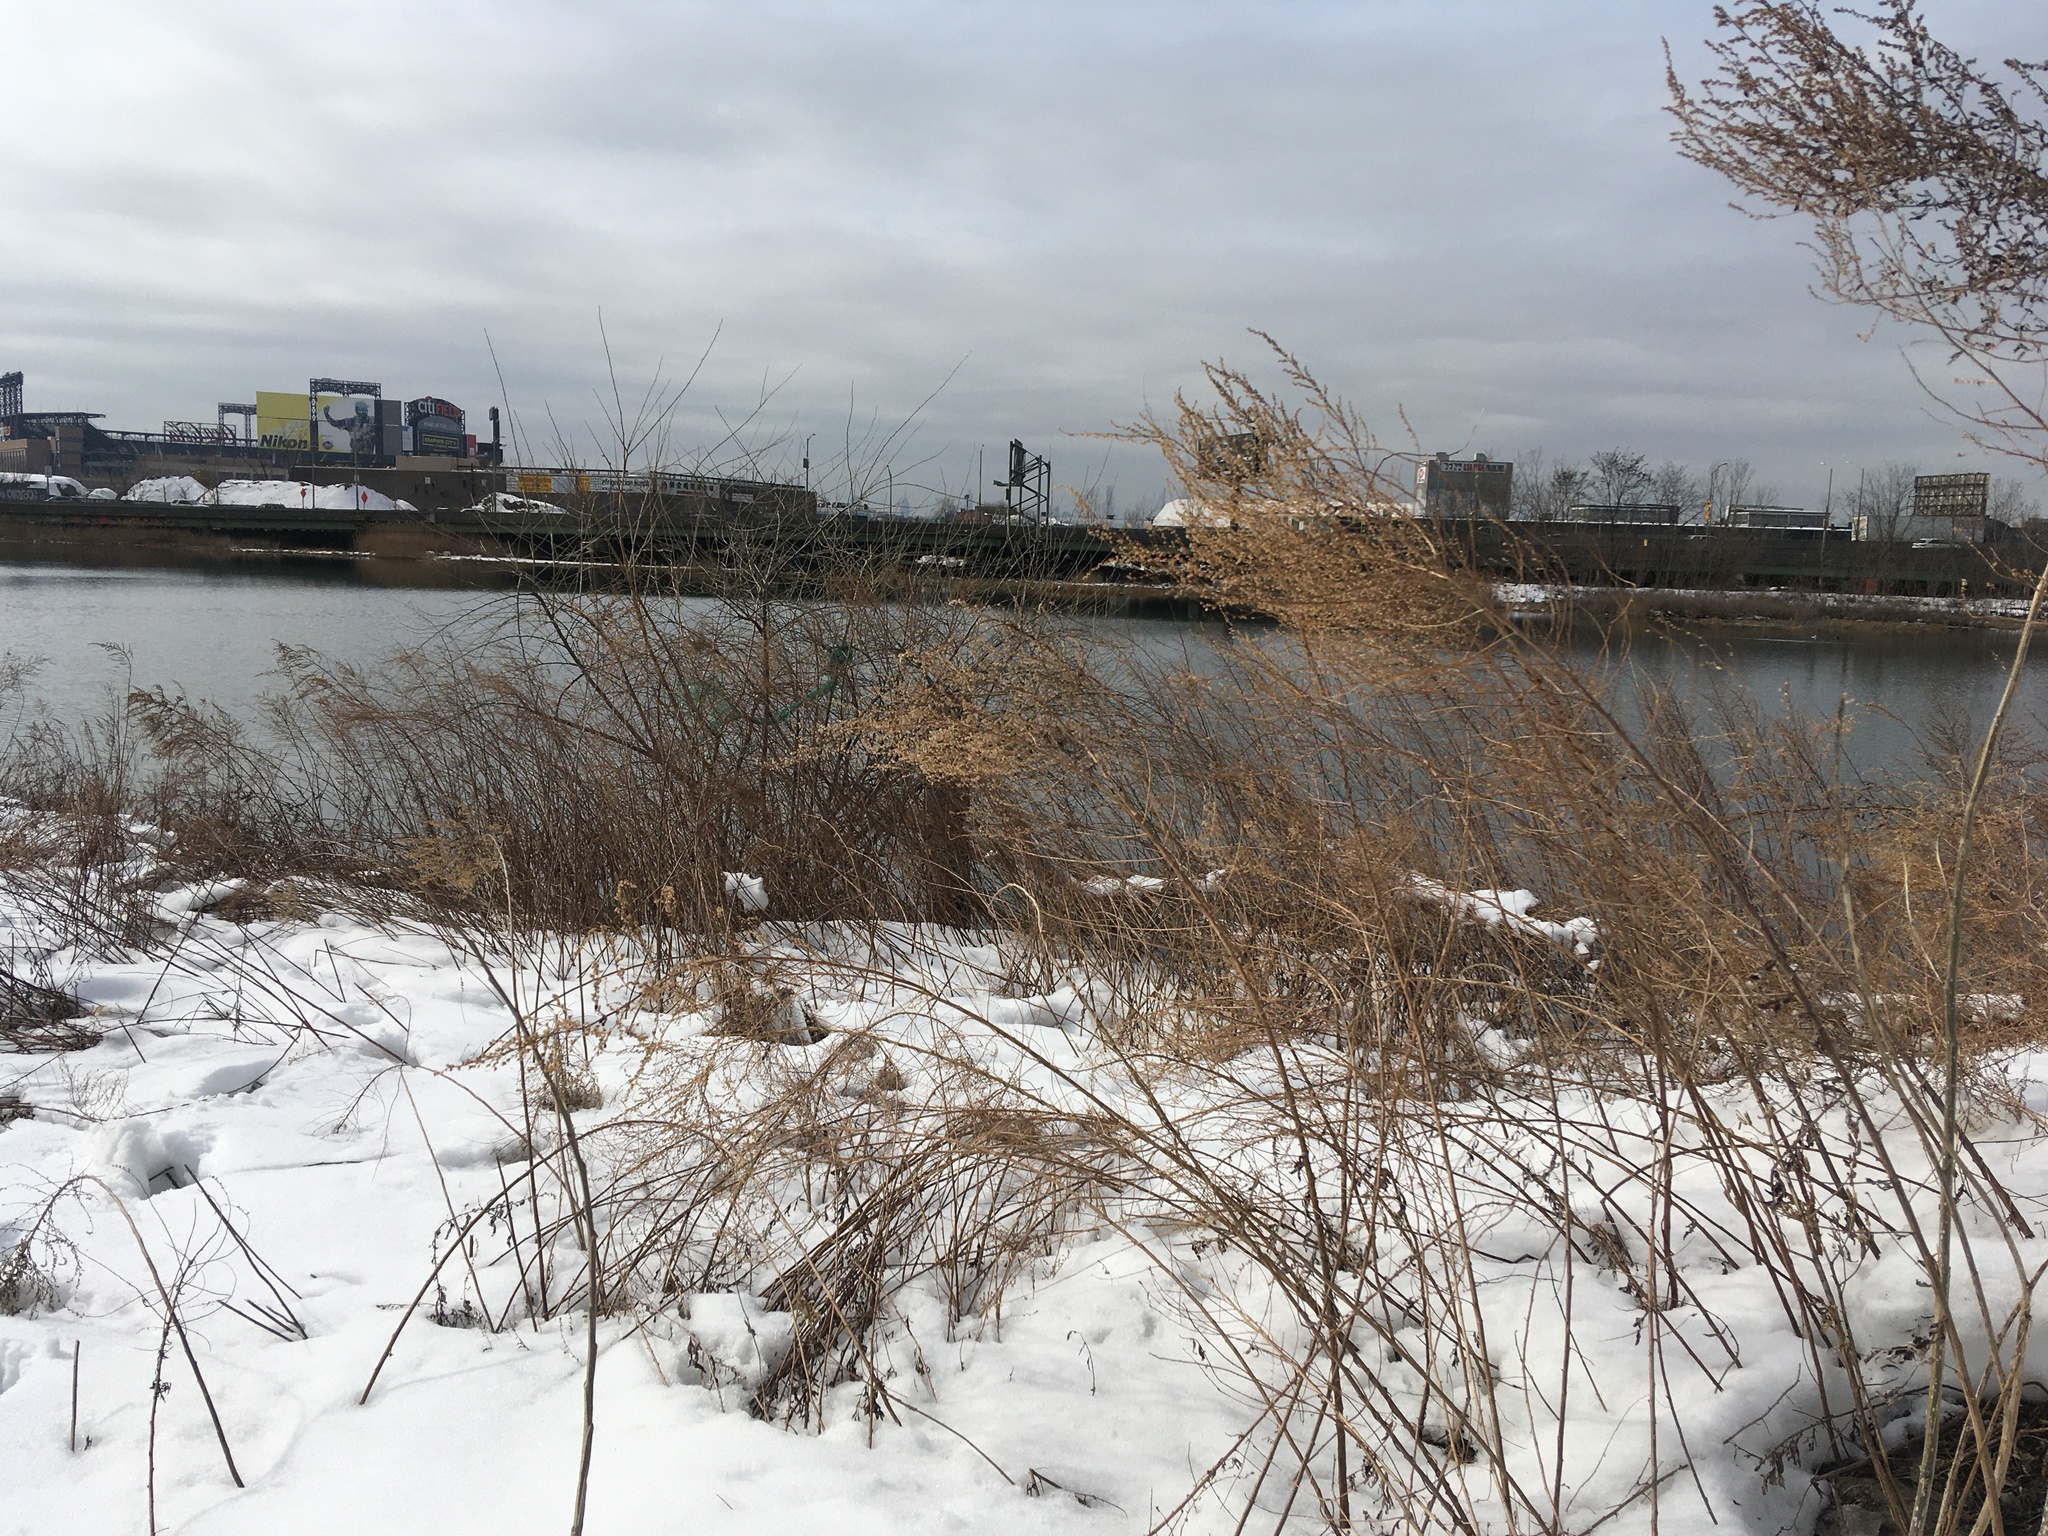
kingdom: Plantae
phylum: Tracheophyta
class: Magnoliopsida
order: Asterales
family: Asteraceae
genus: Artemisia
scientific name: Artemisia vulgaris
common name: Mugwort
